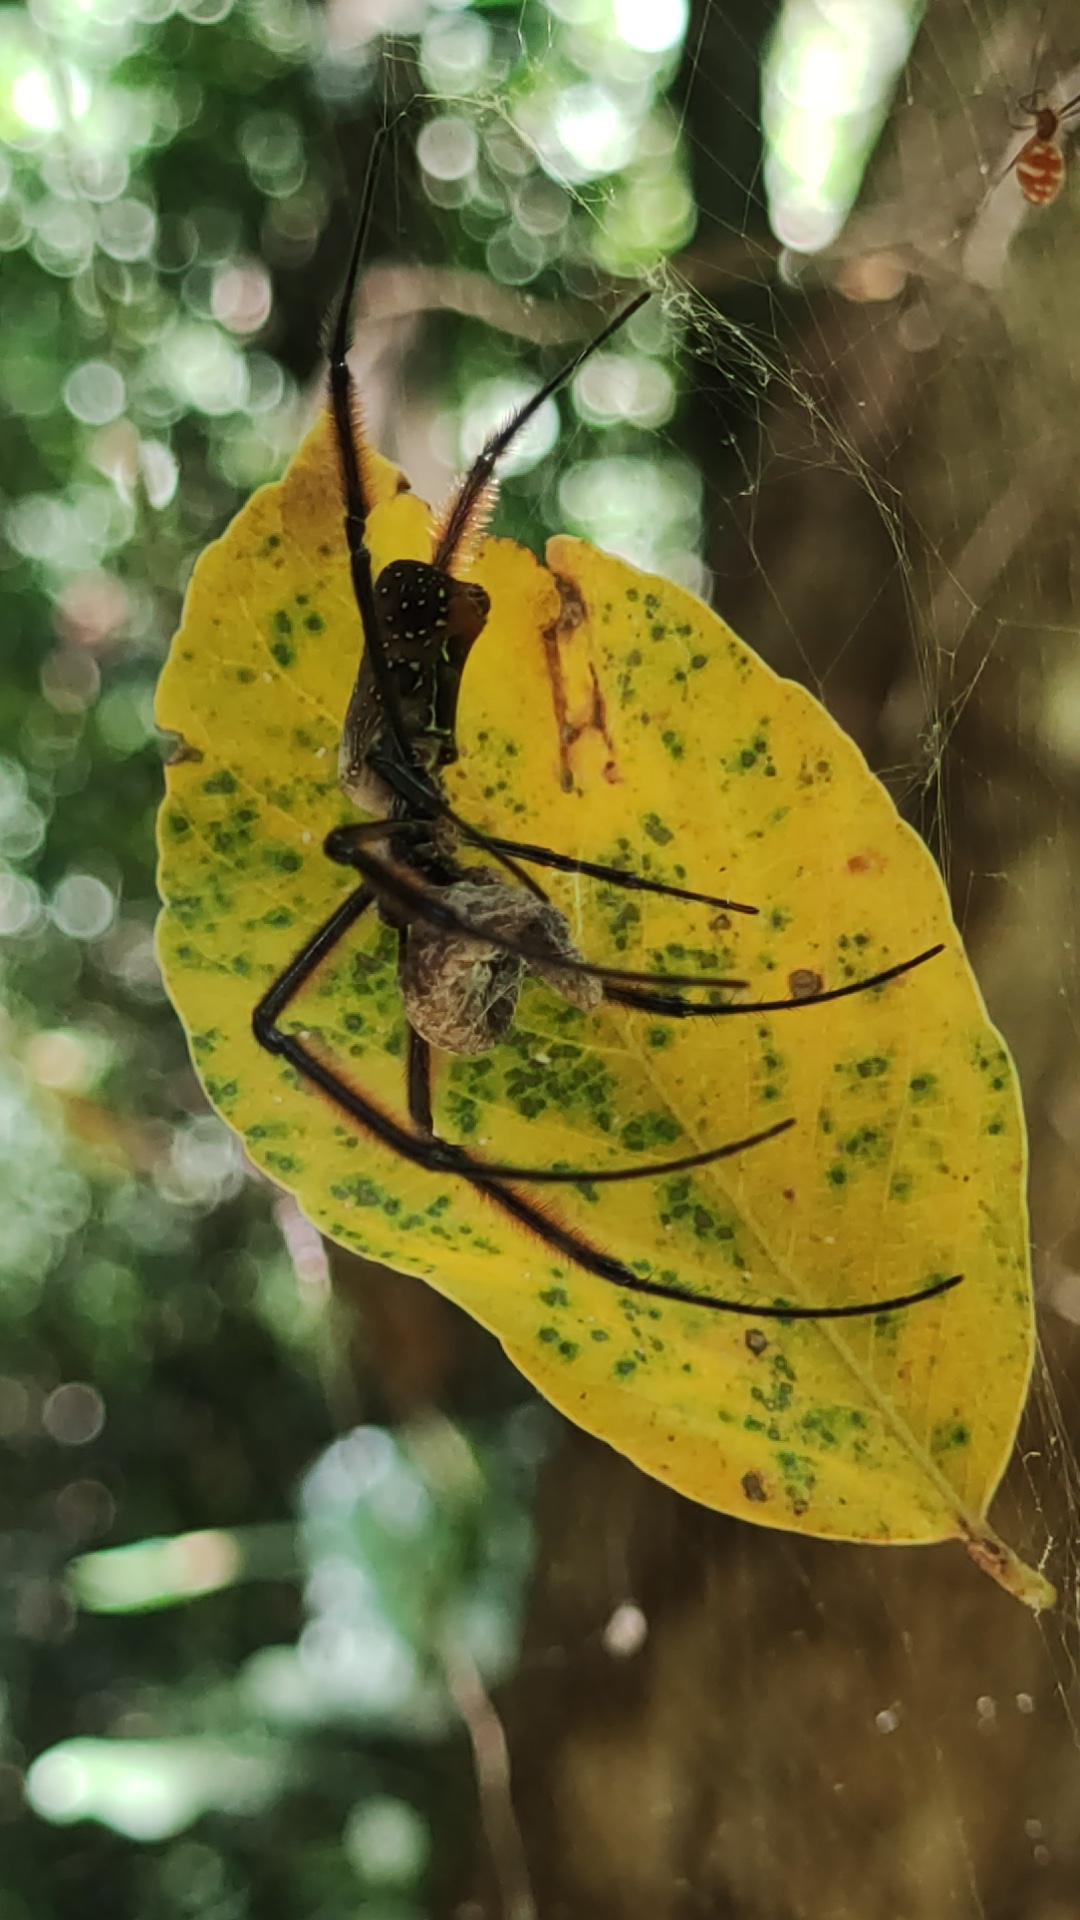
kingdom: Animalia
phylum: Arthropoda
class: Arachnida
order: Araneae
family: Araneidae
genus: Trichonephila
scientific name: Trichonephila fenestrata
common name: Hairy golden orb weaver
